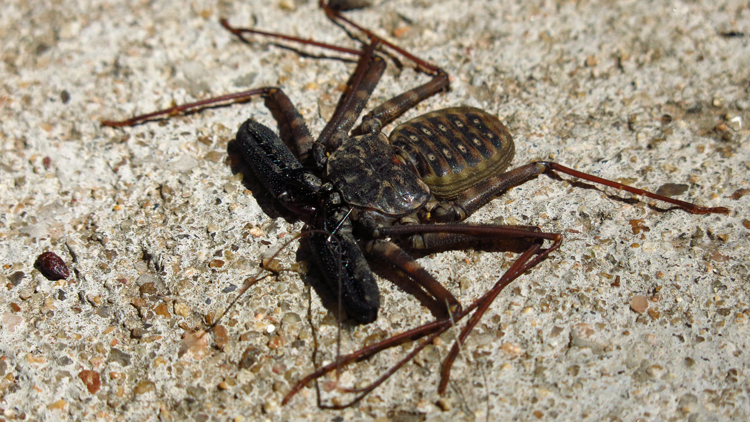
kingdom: Animalia
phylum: Arthropoda
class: Arachnida
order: Amblypygi
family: Phrynichidae
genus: Damon
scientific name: Damon variegatus
